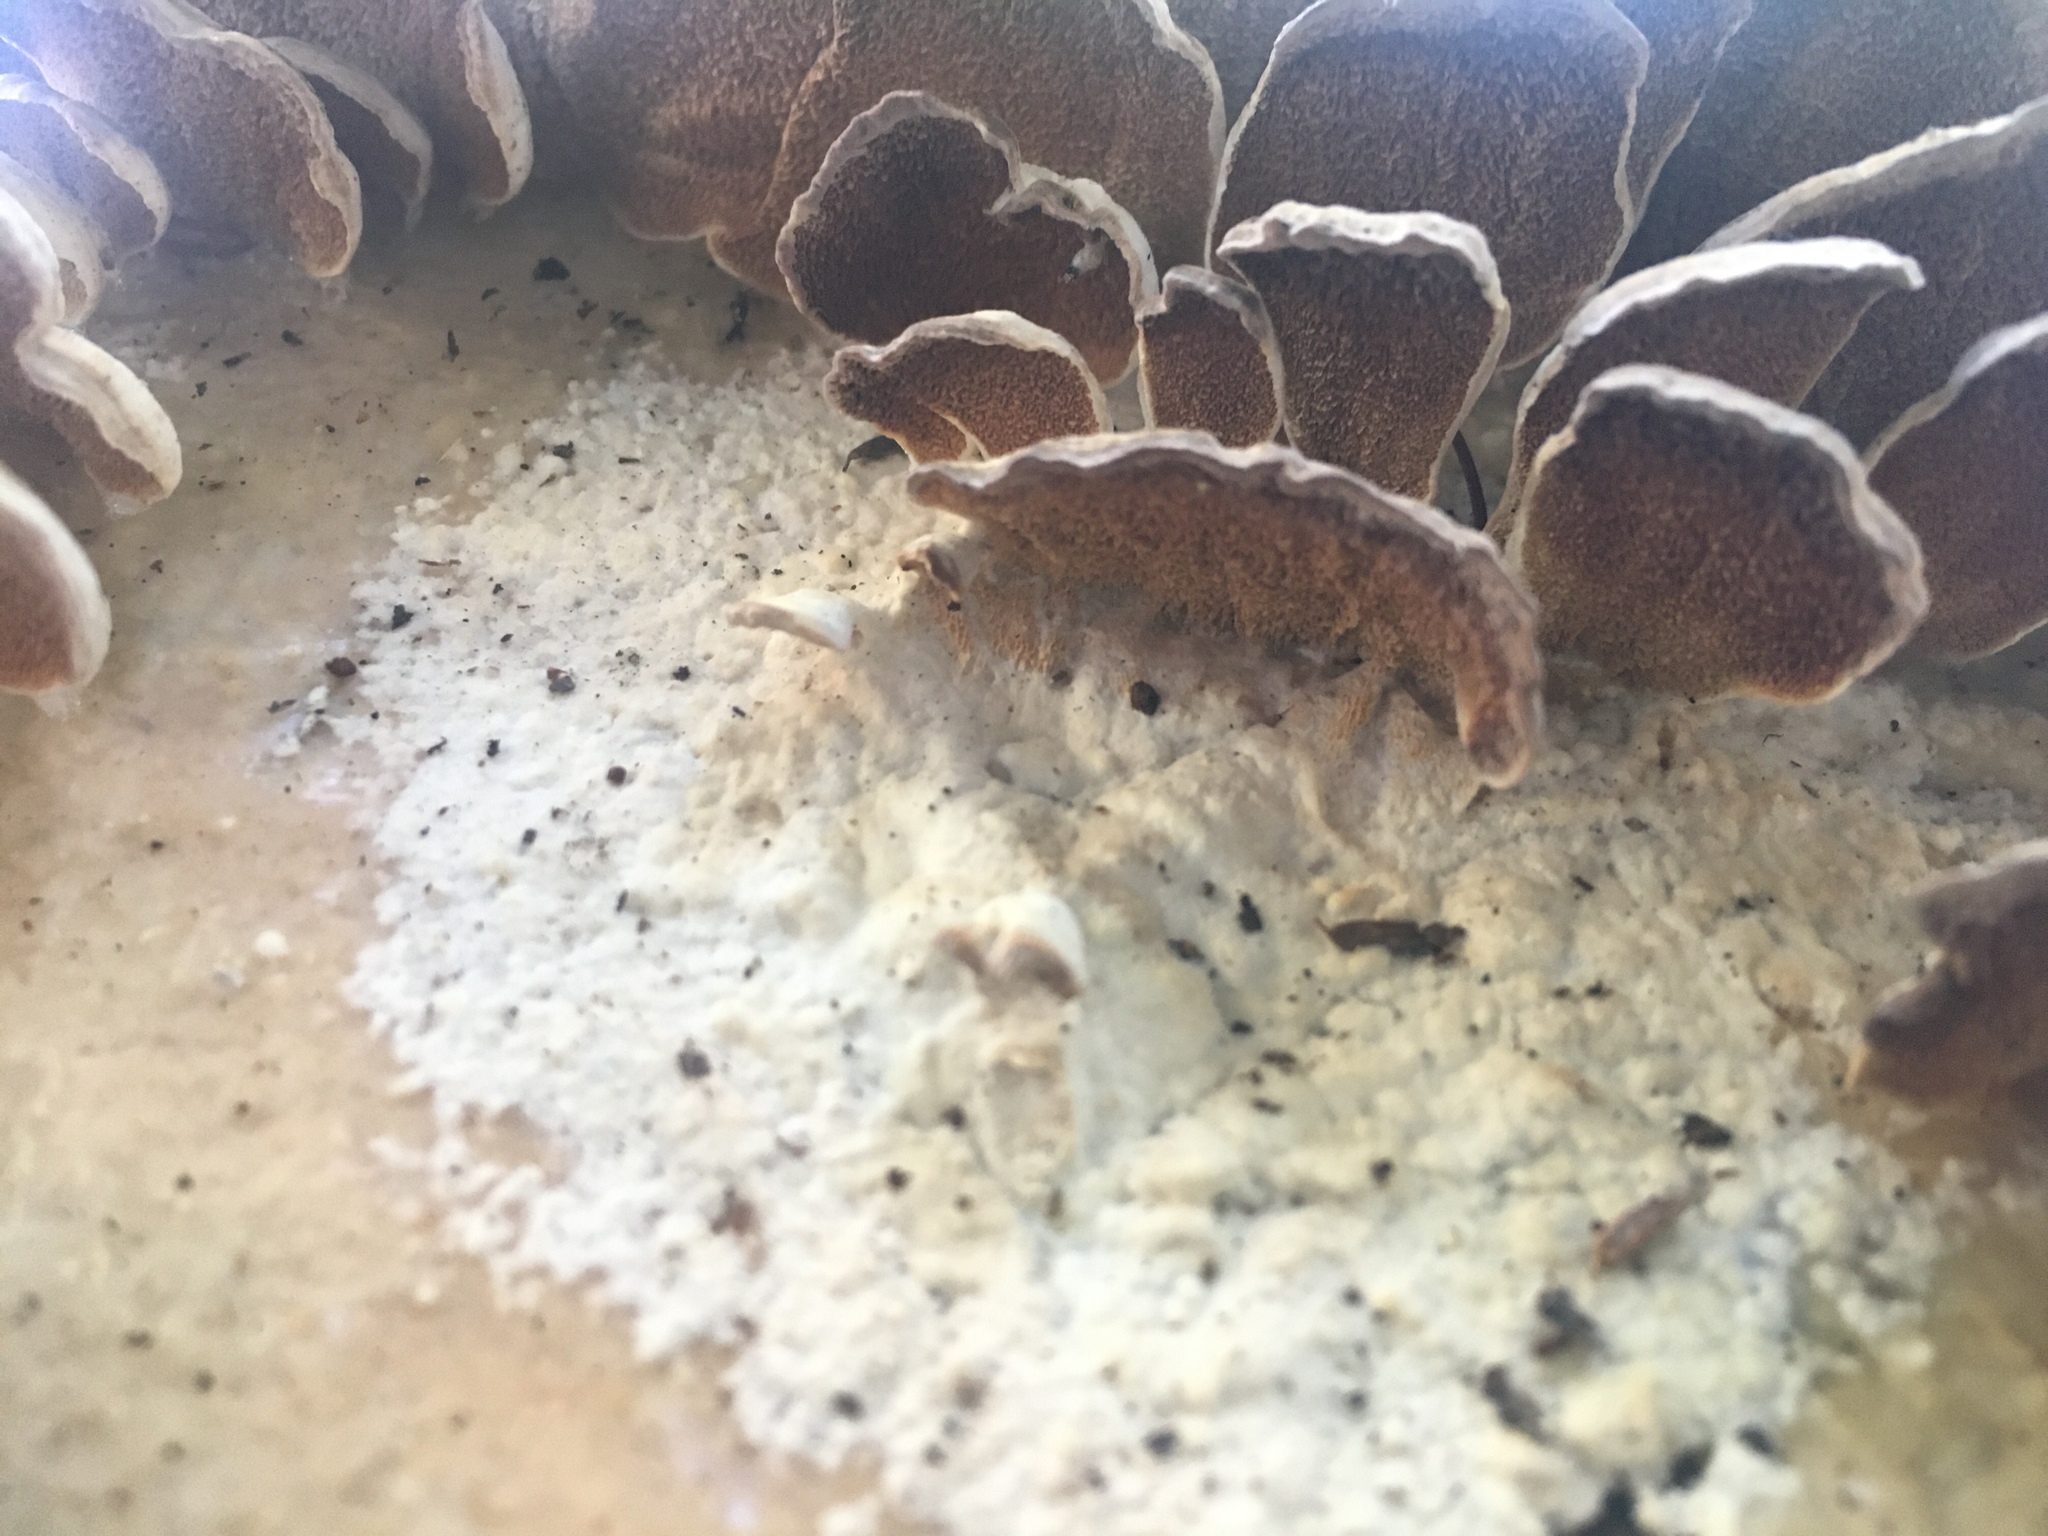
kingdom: Fungi
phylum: Basidiomycota
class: Agaricomycetes
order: Hymenochaetales
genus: Trichaptum
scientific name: Trichaptum biforme
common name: Violet-toothed polypore
